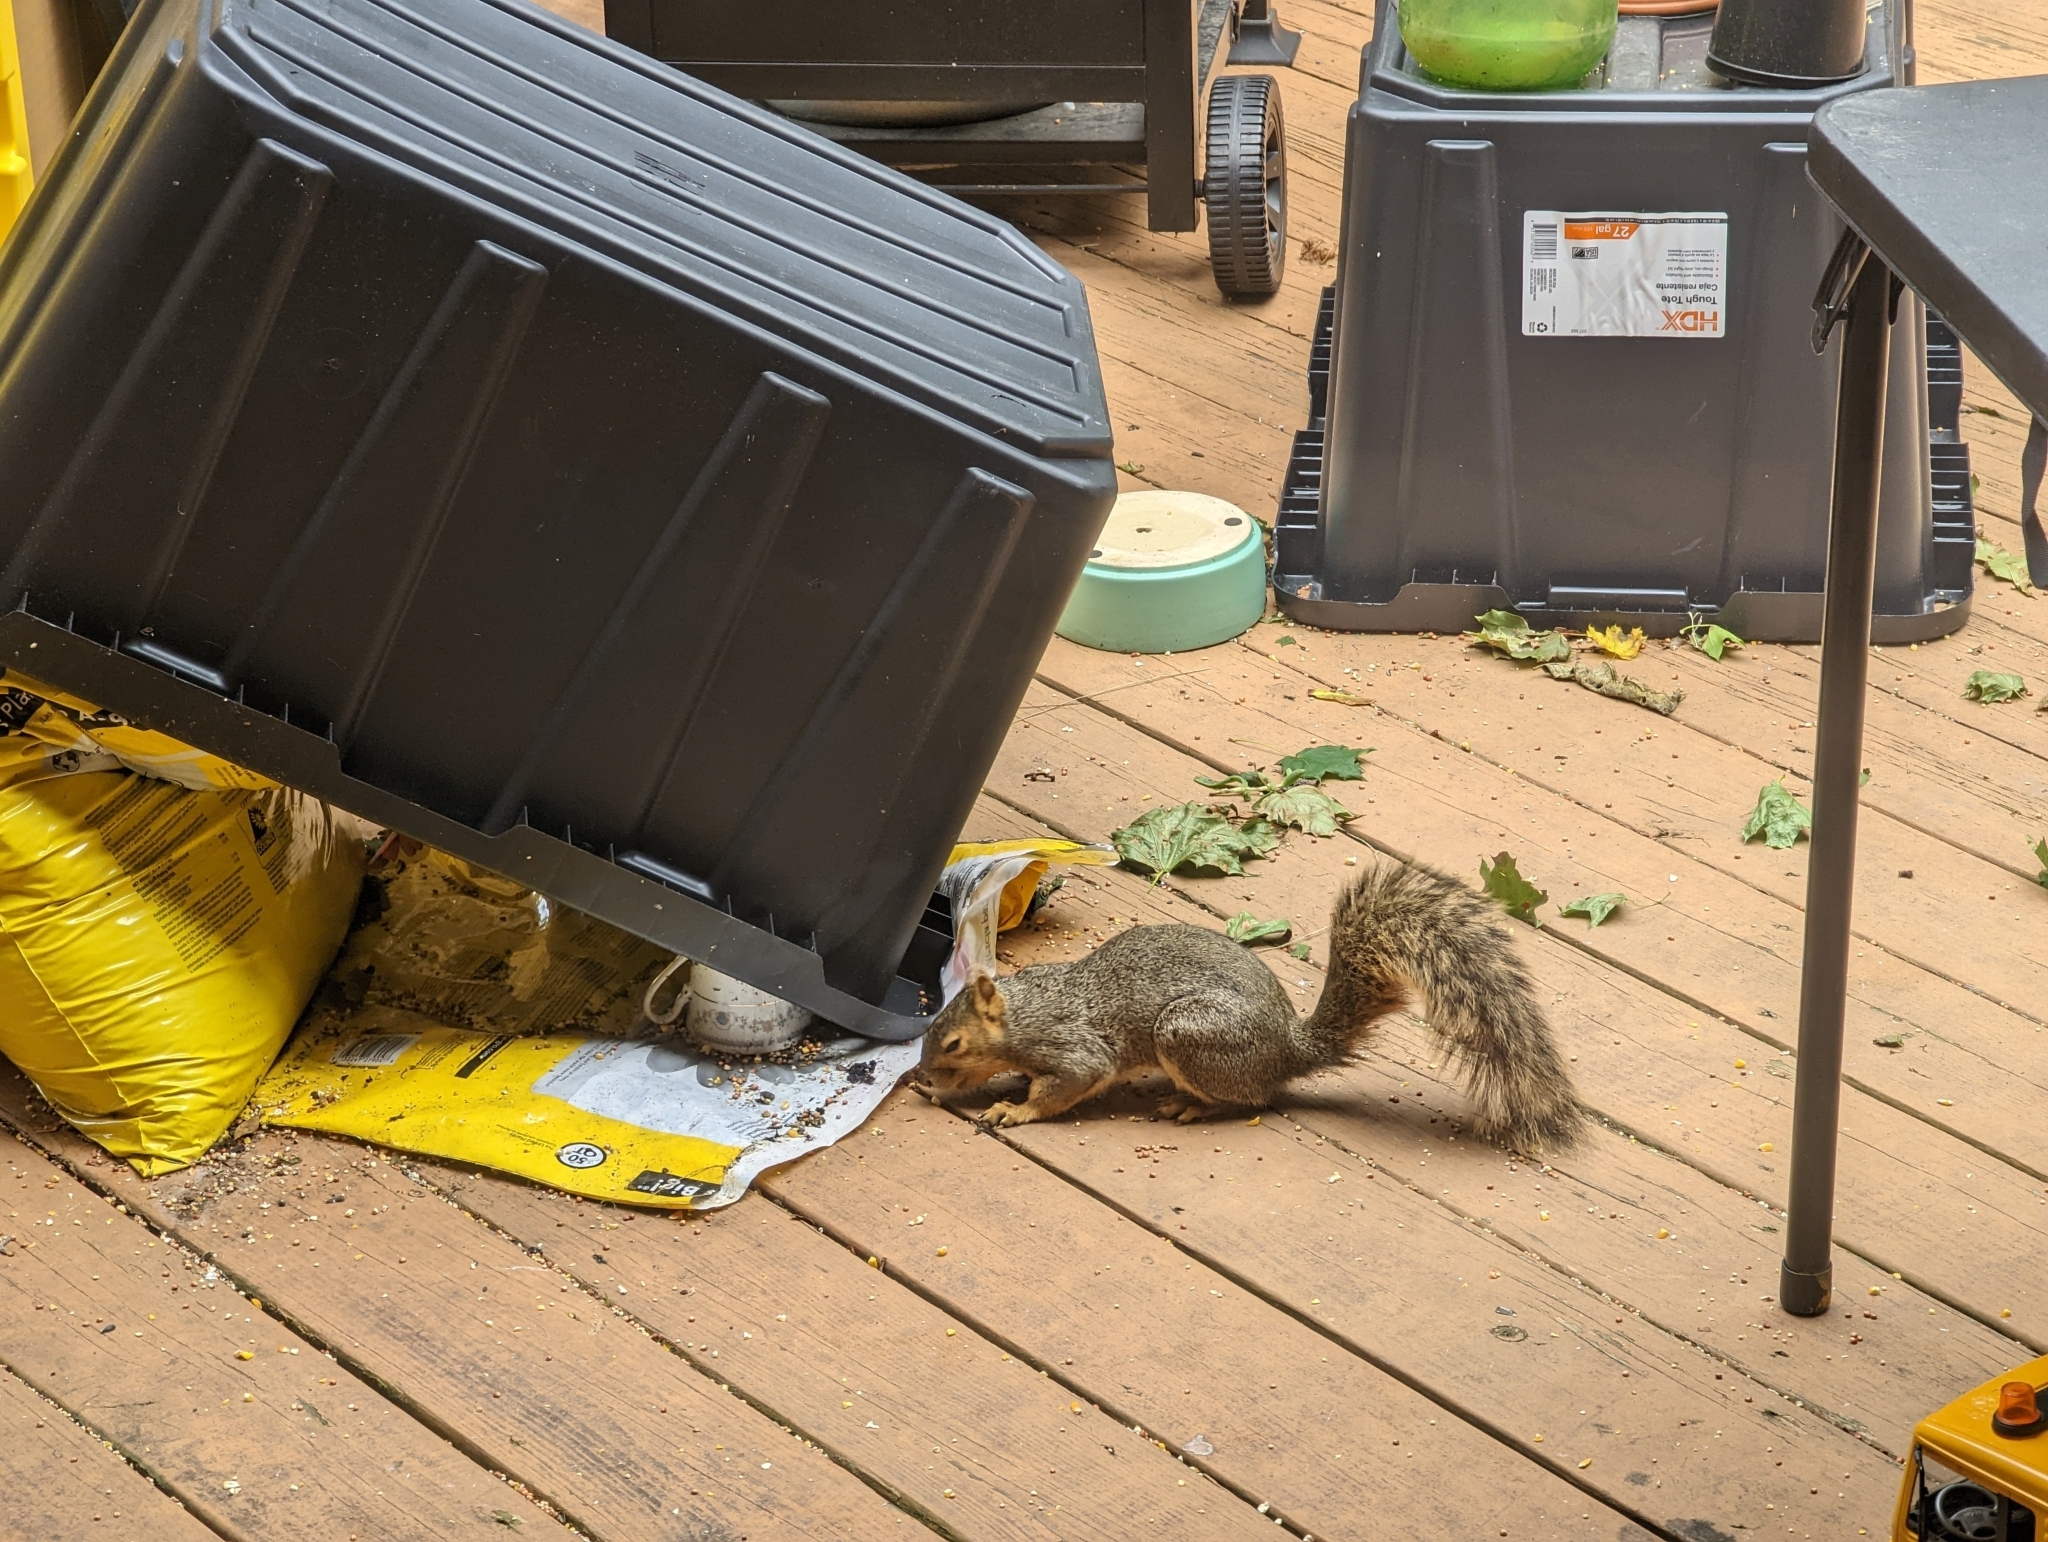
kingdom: Animalia
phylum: Chordata
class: Mammalia
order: Rodentia
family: Sciuridae
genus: Sciurus
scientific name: Sciurus niger
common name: Fox squirrel
